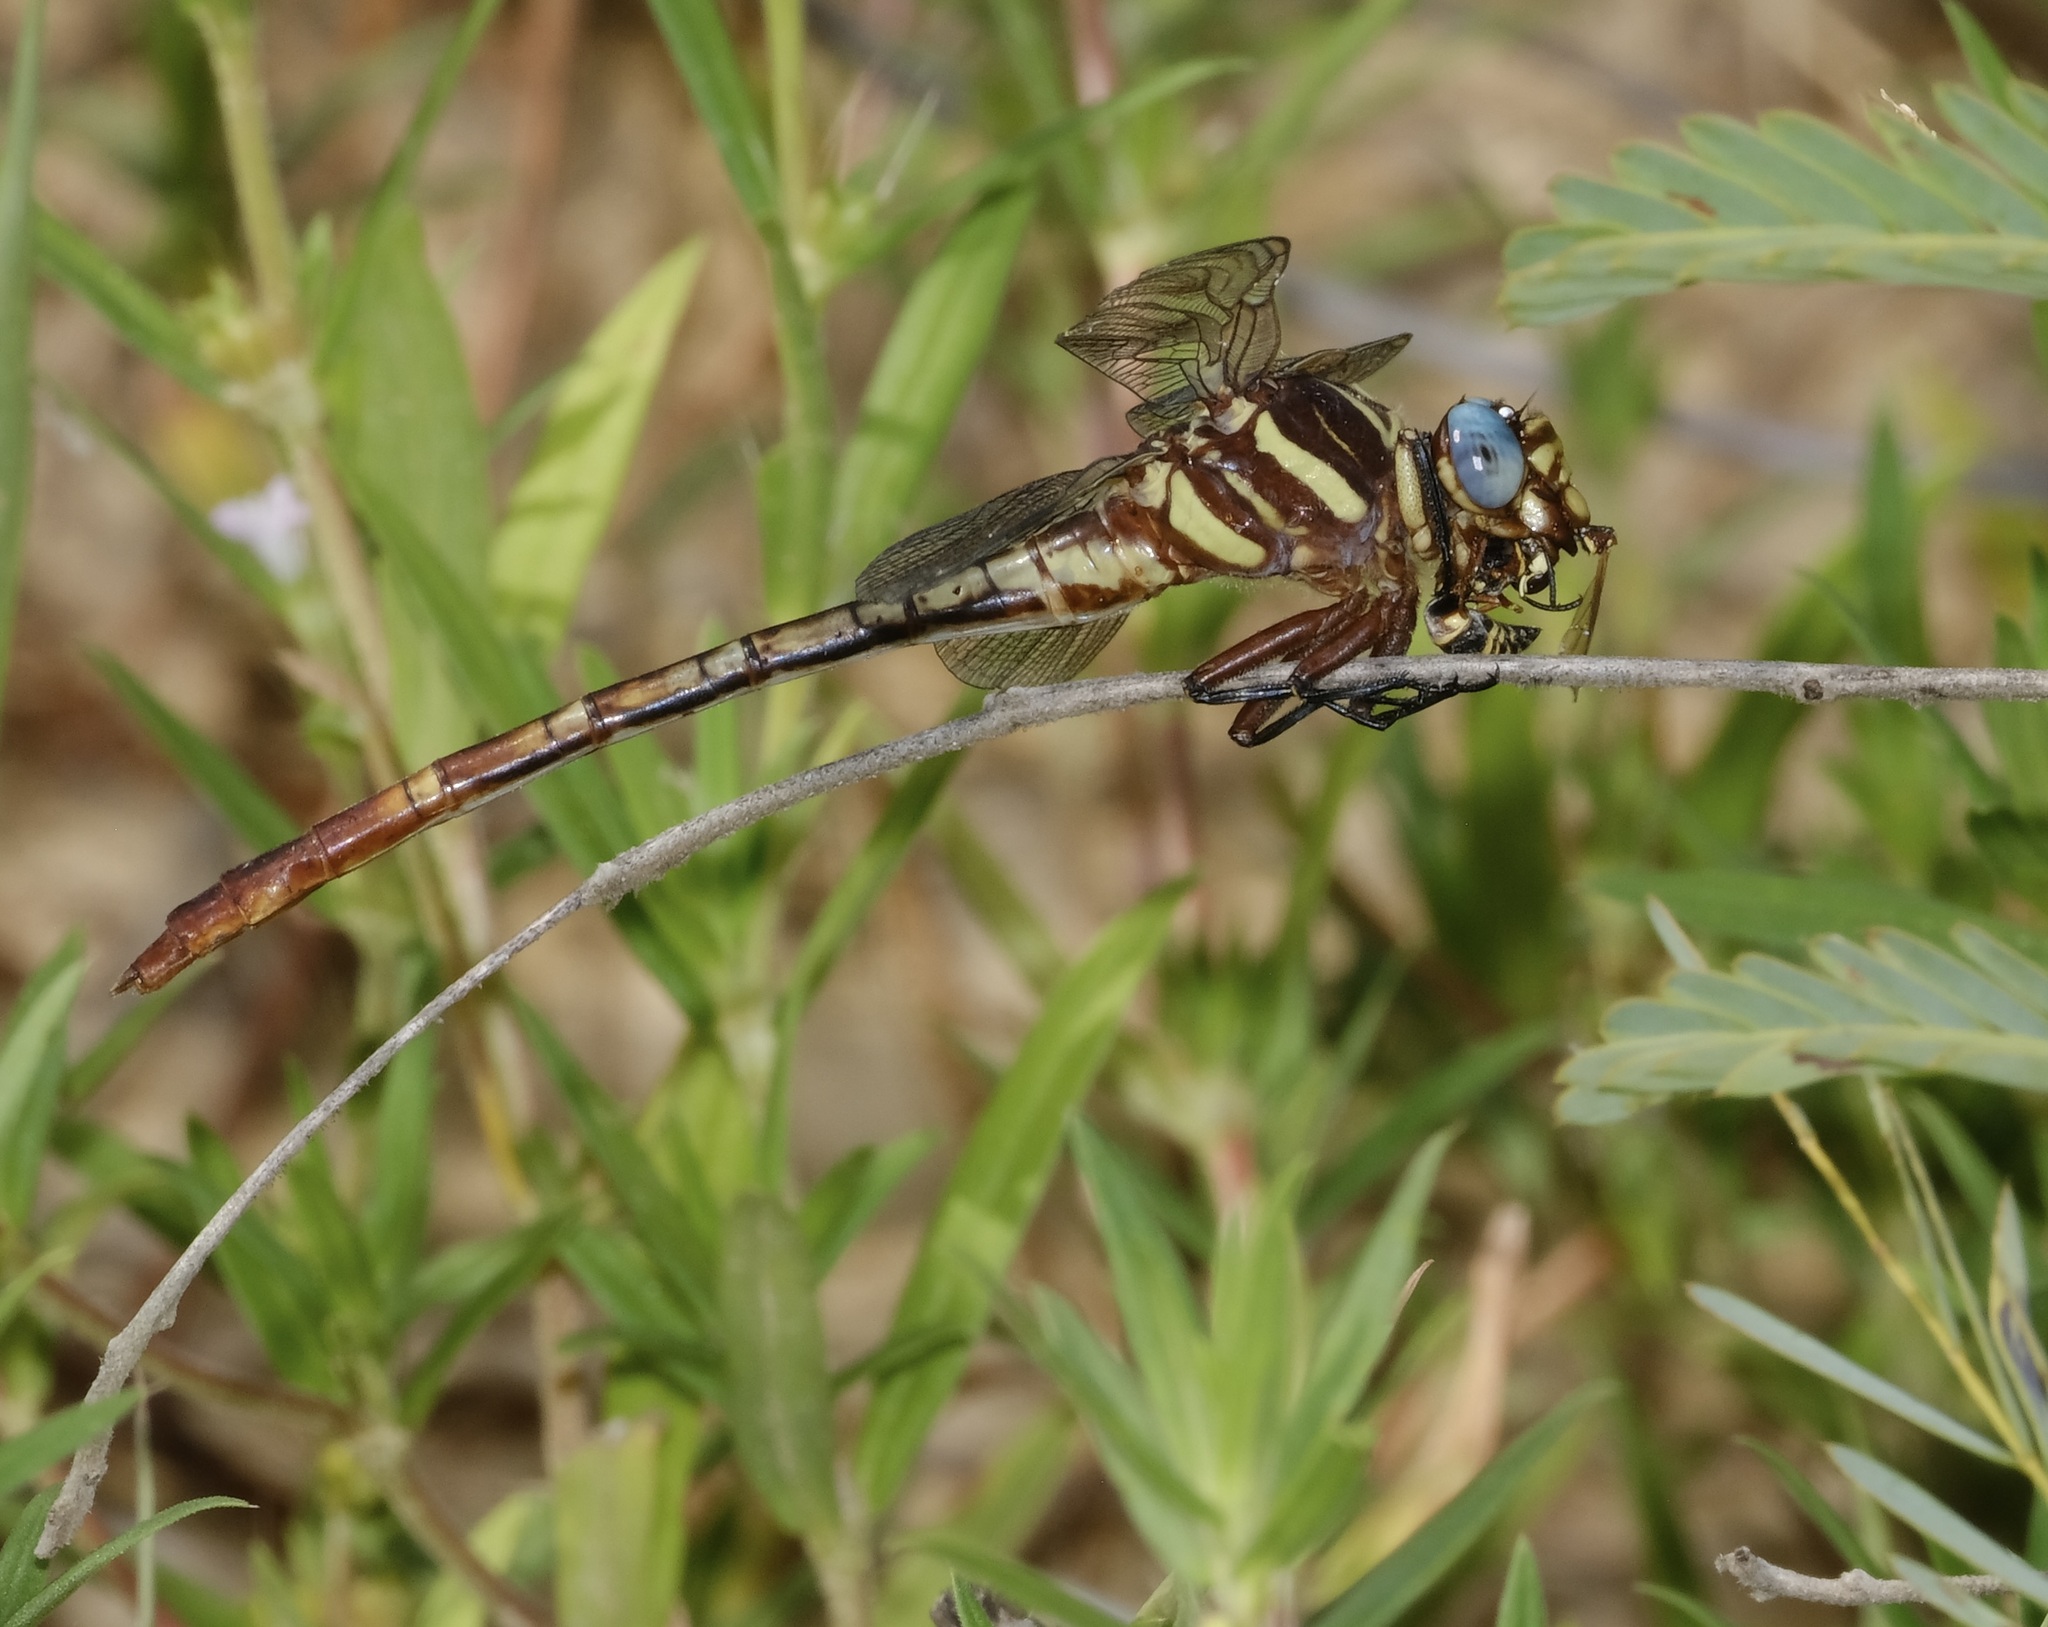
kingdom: Animalia
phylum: Arthropoda
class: Insecta
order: Odonata
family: Gomphidae
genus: Aphylla
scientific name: Aphylla williamsoni
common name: Two-striped forceptail
